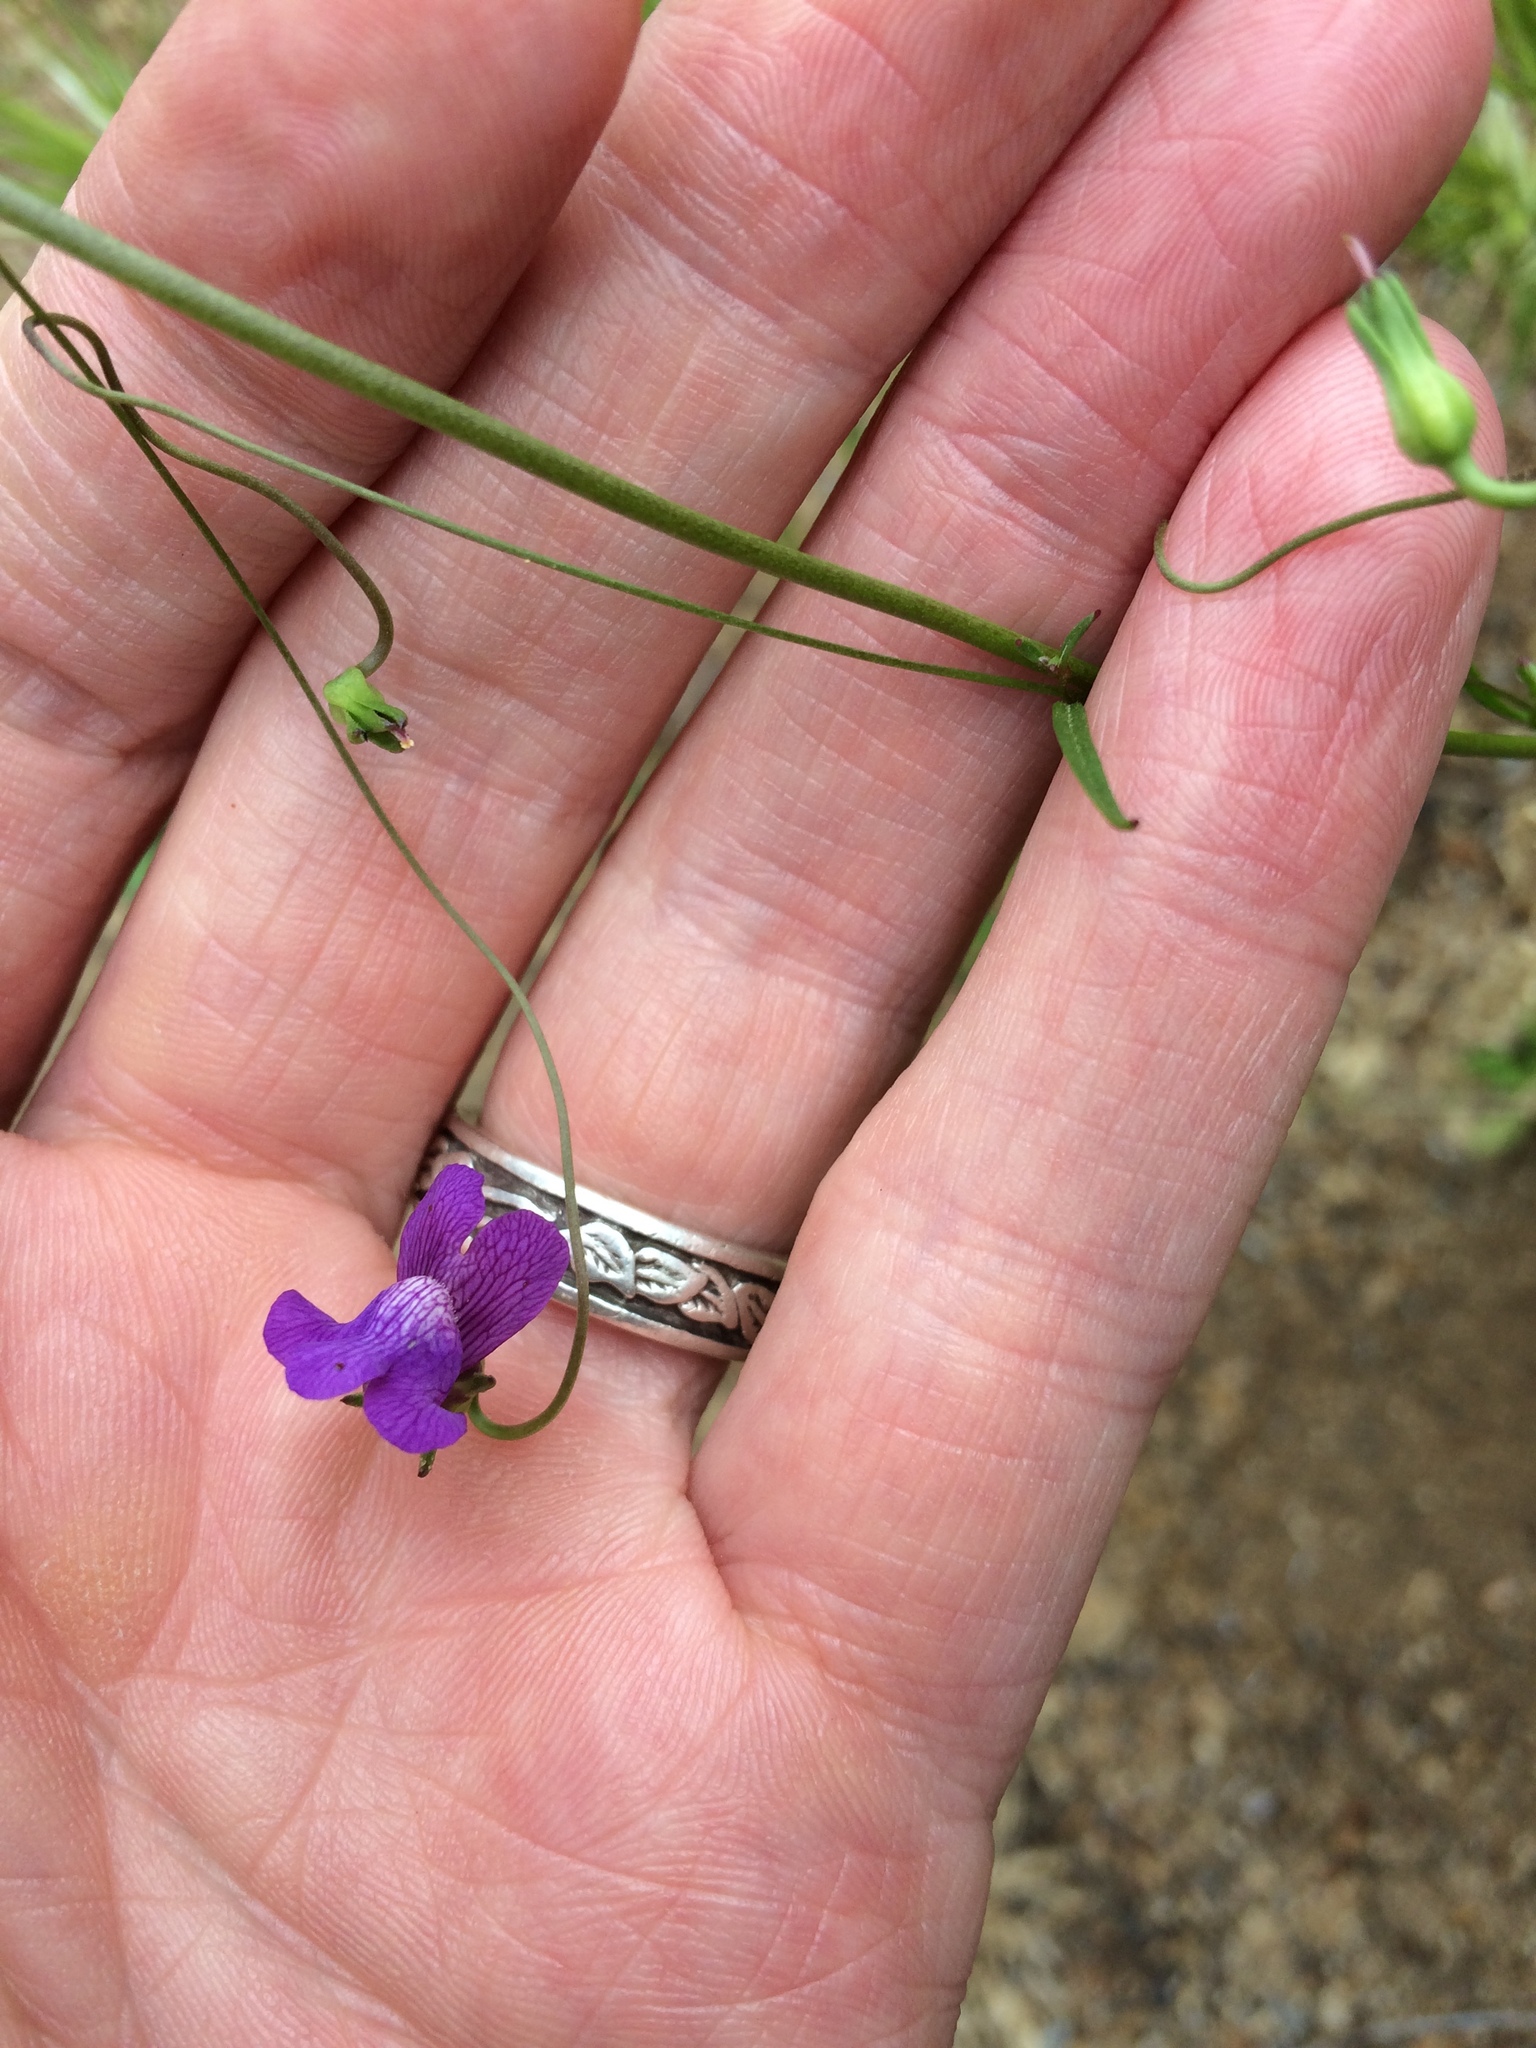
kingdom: Plantae
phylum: Tracheophyta
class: Magnoliopsida
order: Lamiales
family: Plantaginaceae
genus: Neogaerrhinum
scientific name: Neogaerrhinum strictum
